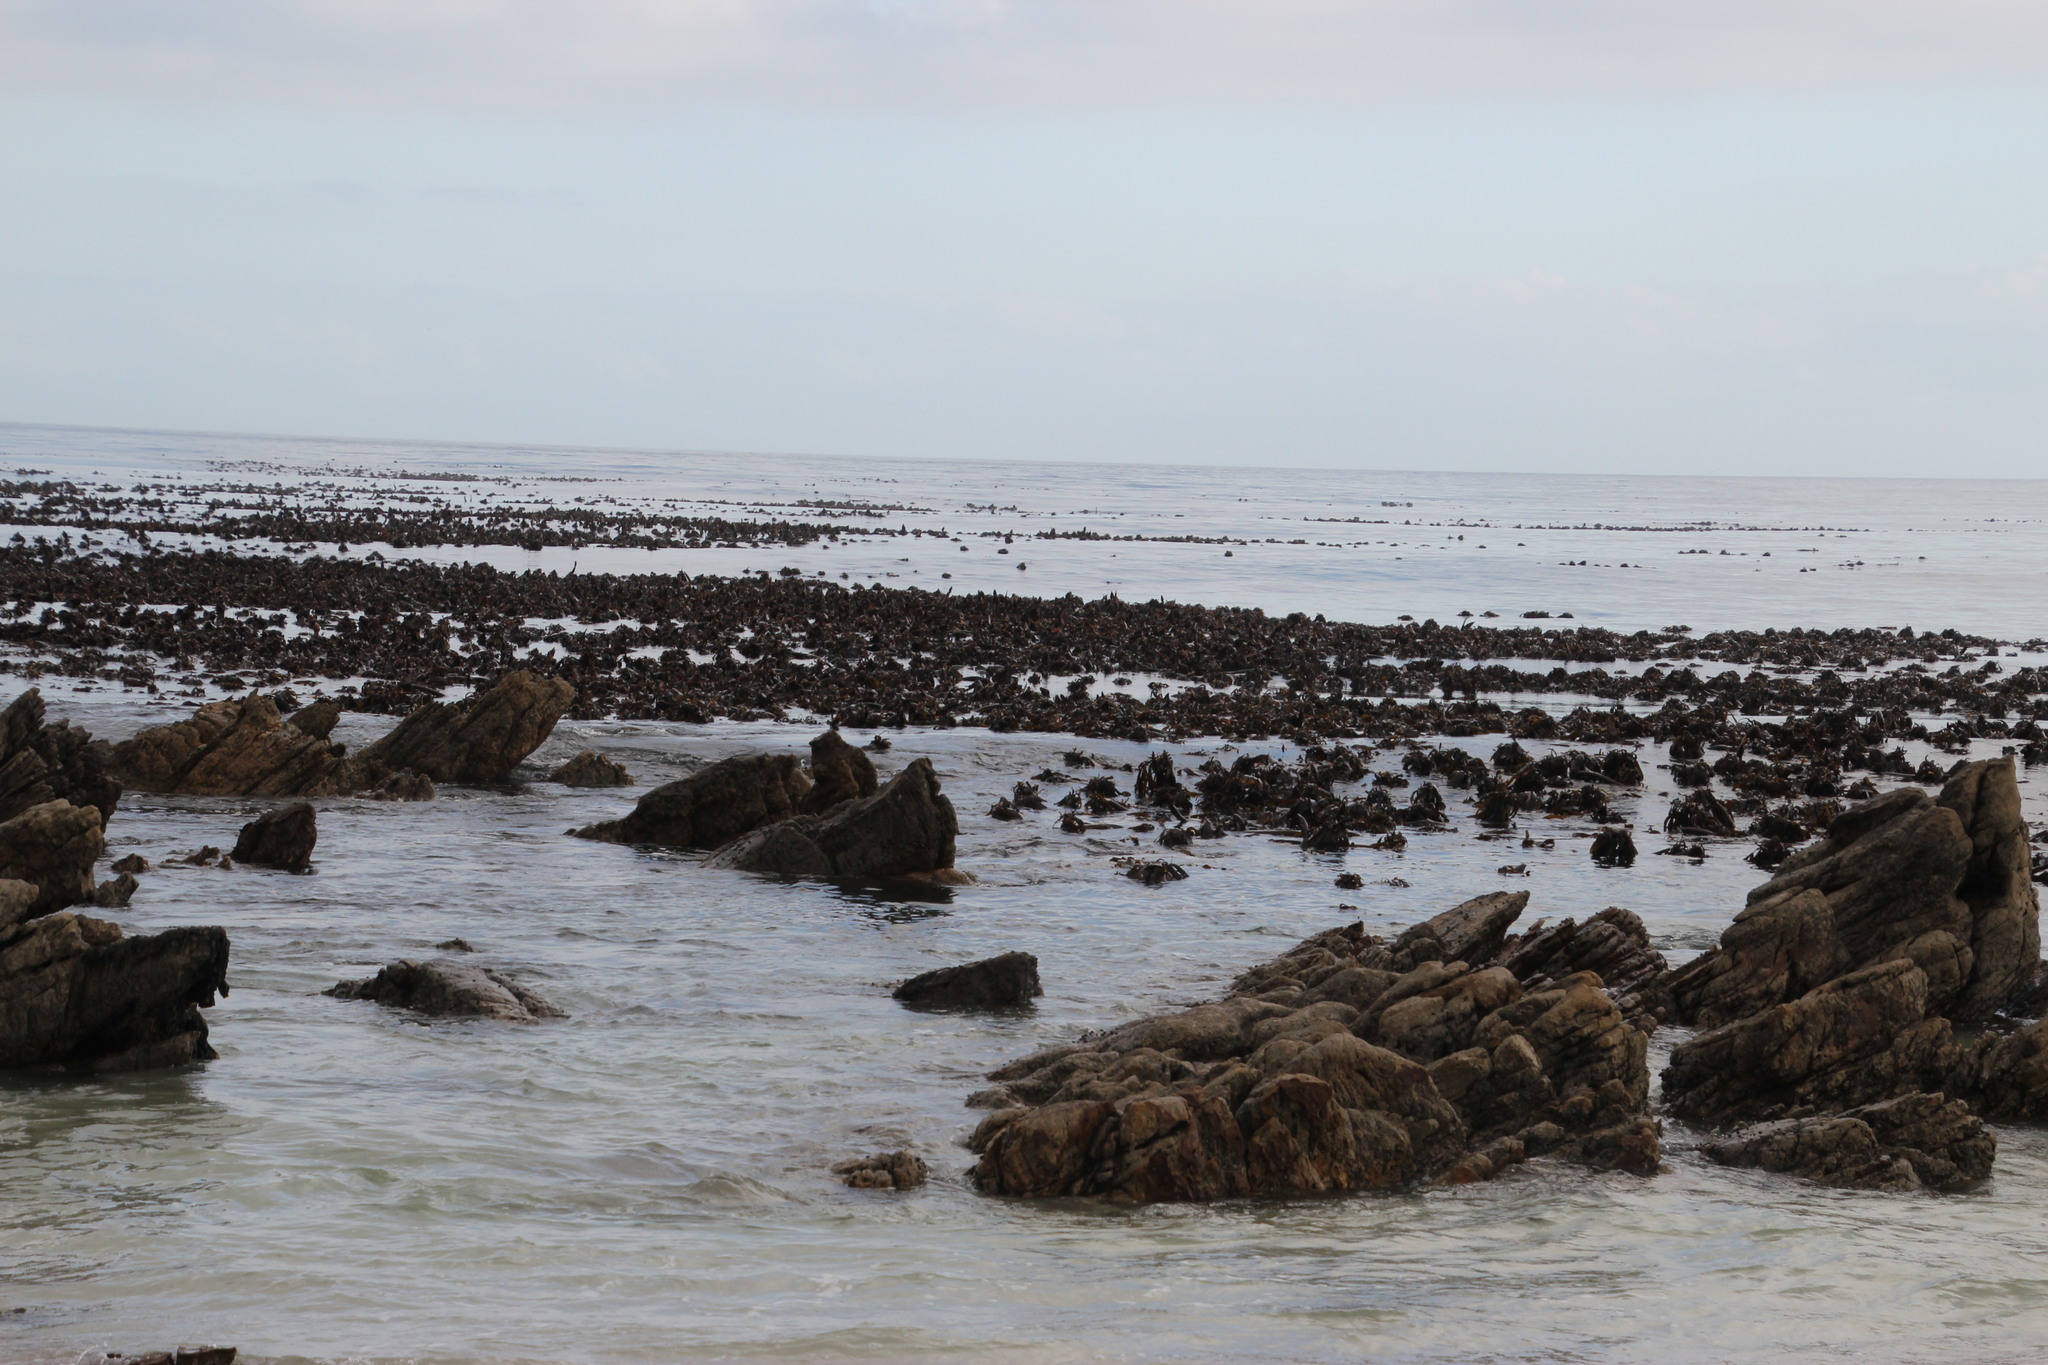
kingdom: Chromista
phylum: Ochrophyta
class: Phaeophyceae
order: Laminariales
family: Lessoniaceae
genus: Ecklonia
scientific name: Ecklonia
